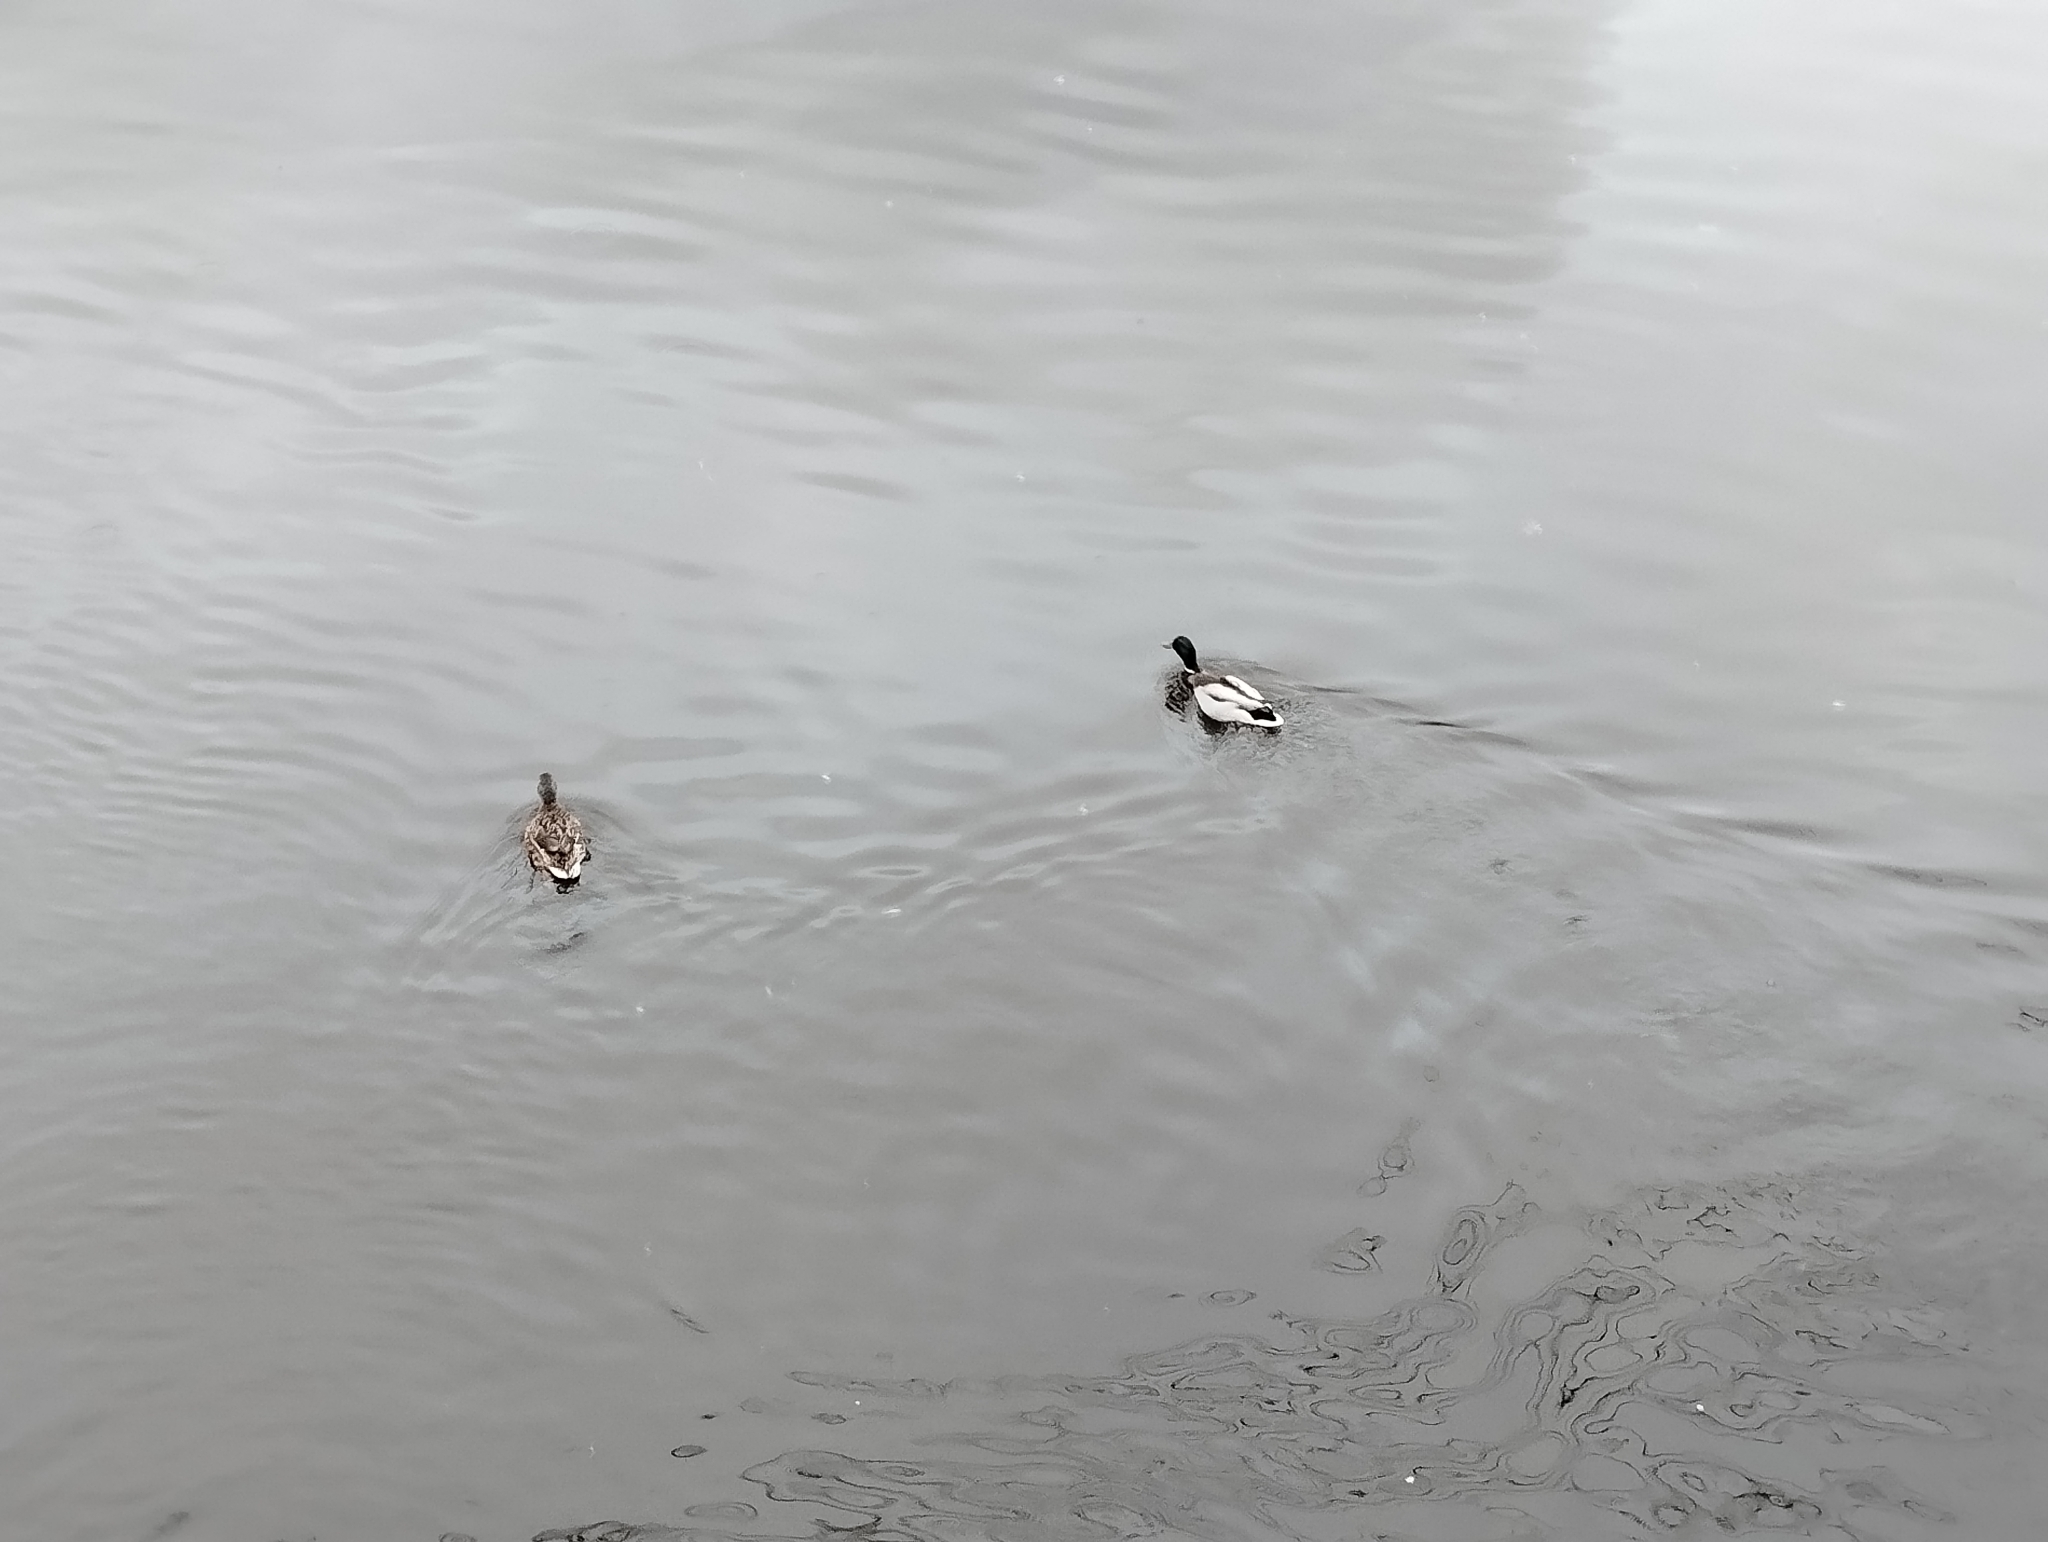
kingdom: Animalia
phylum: Chordata
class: Aves
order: Anseriformes
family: Anatidae
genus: Anas
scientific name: Anas platyrhynchos
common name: Mallard
